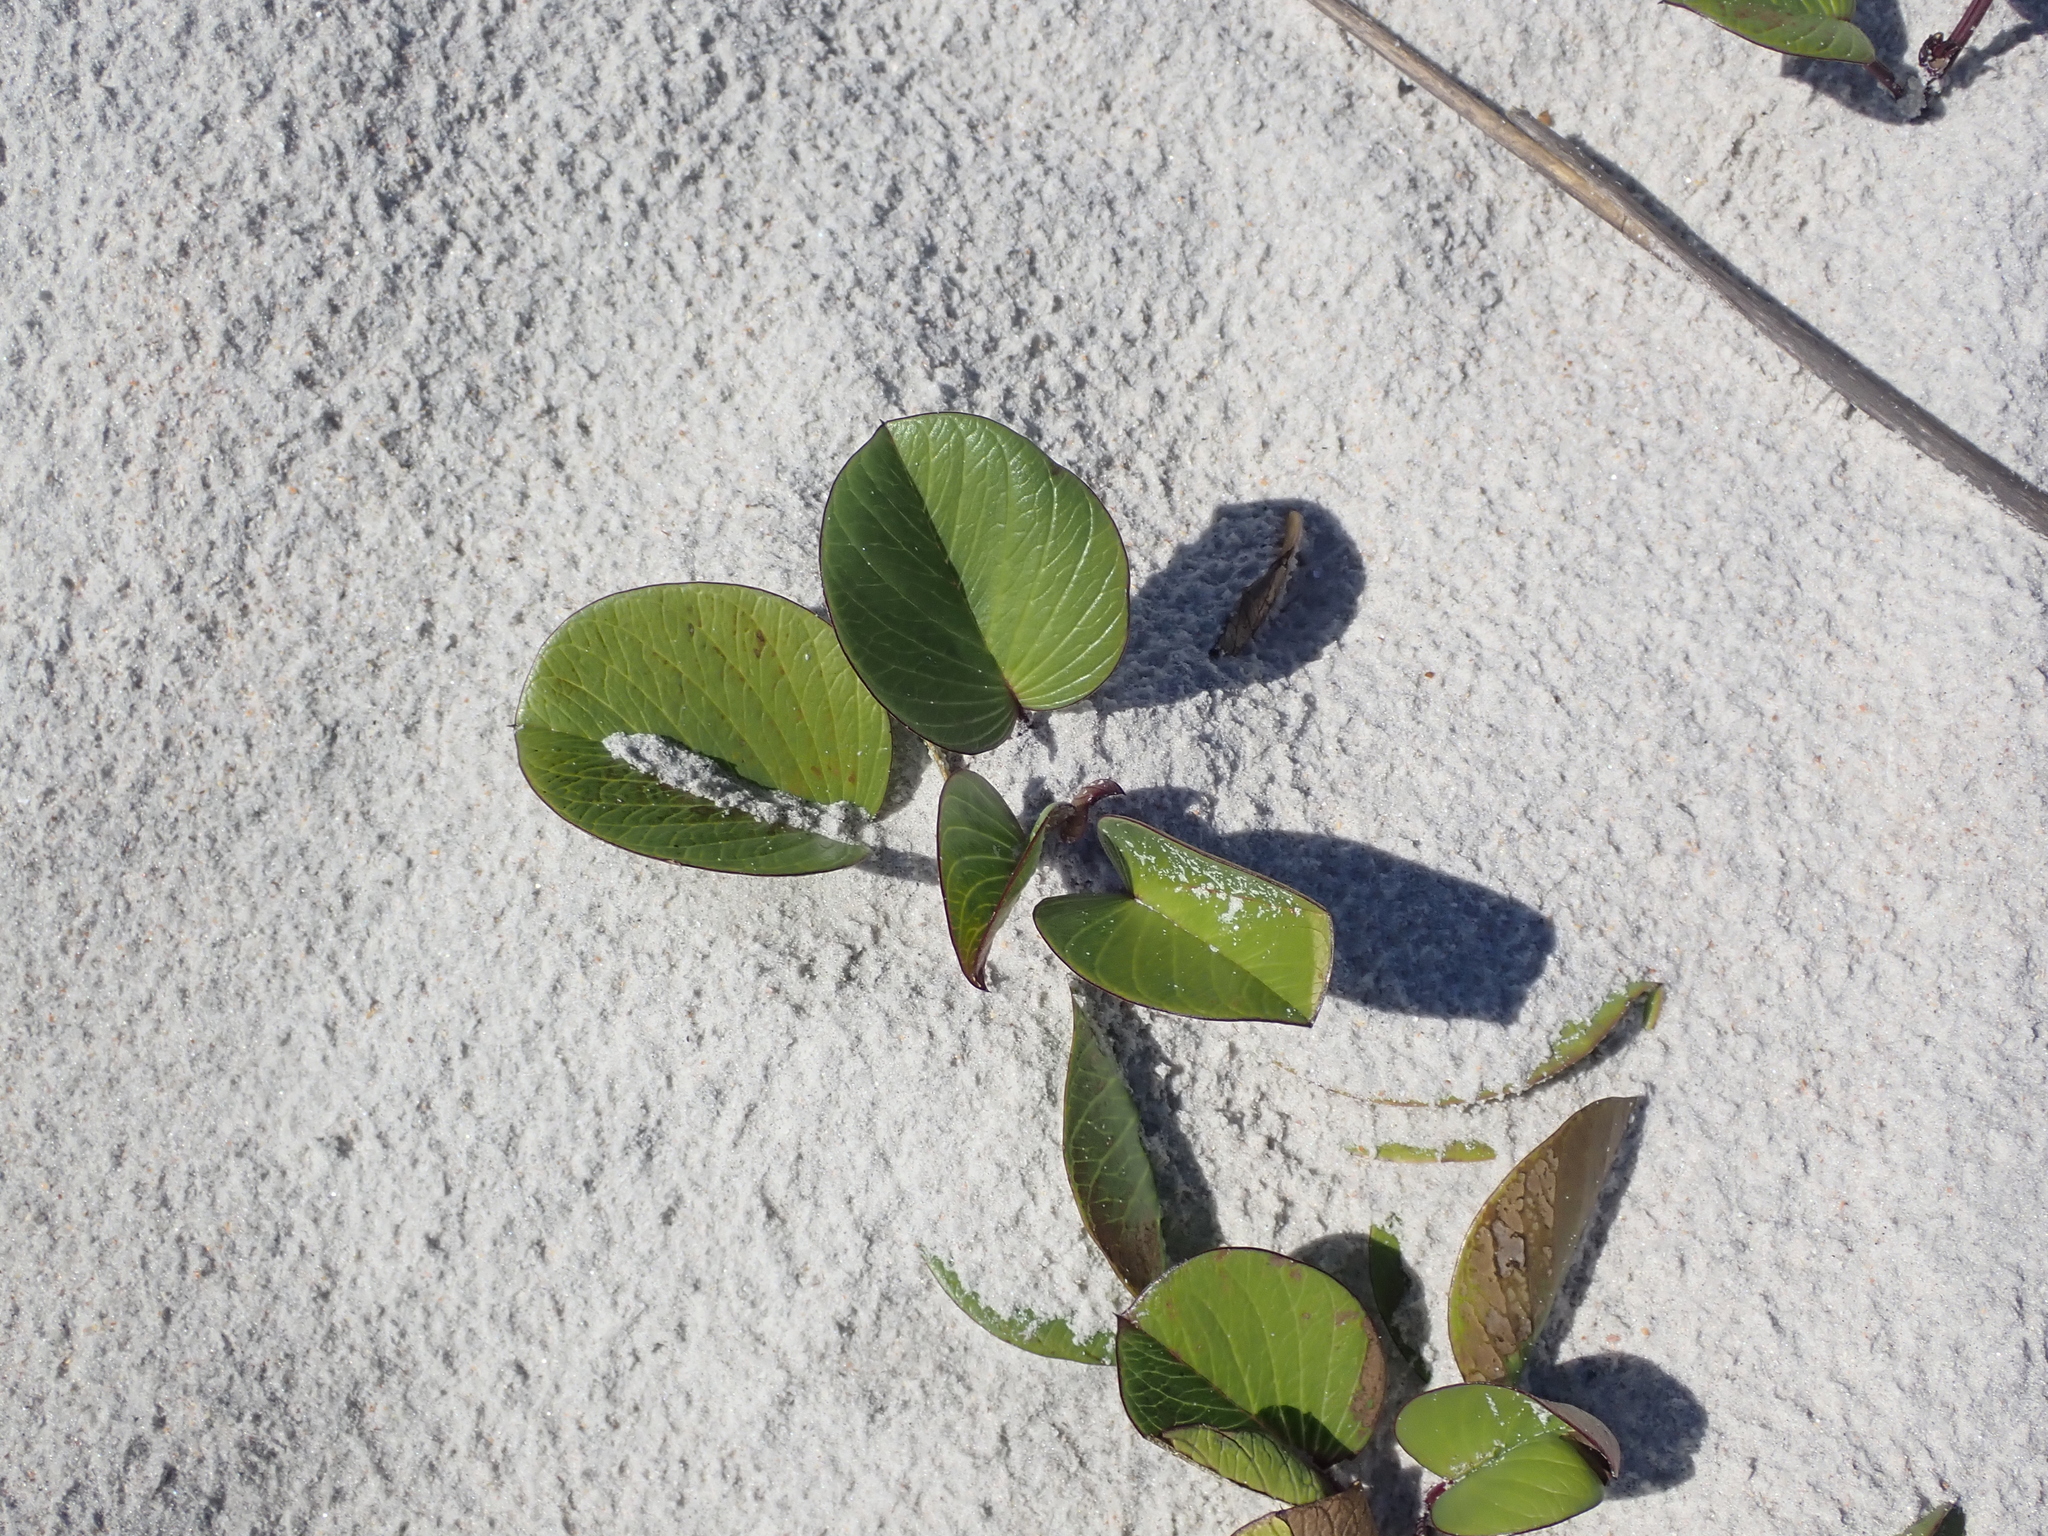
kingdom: Plantae
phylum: Tracheophyta
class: Magnoliopsida
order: Solanales
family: Convolvulaceae
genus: Ipomoea
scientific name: Ipomoea pes-caprae
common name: Beach morning glory
